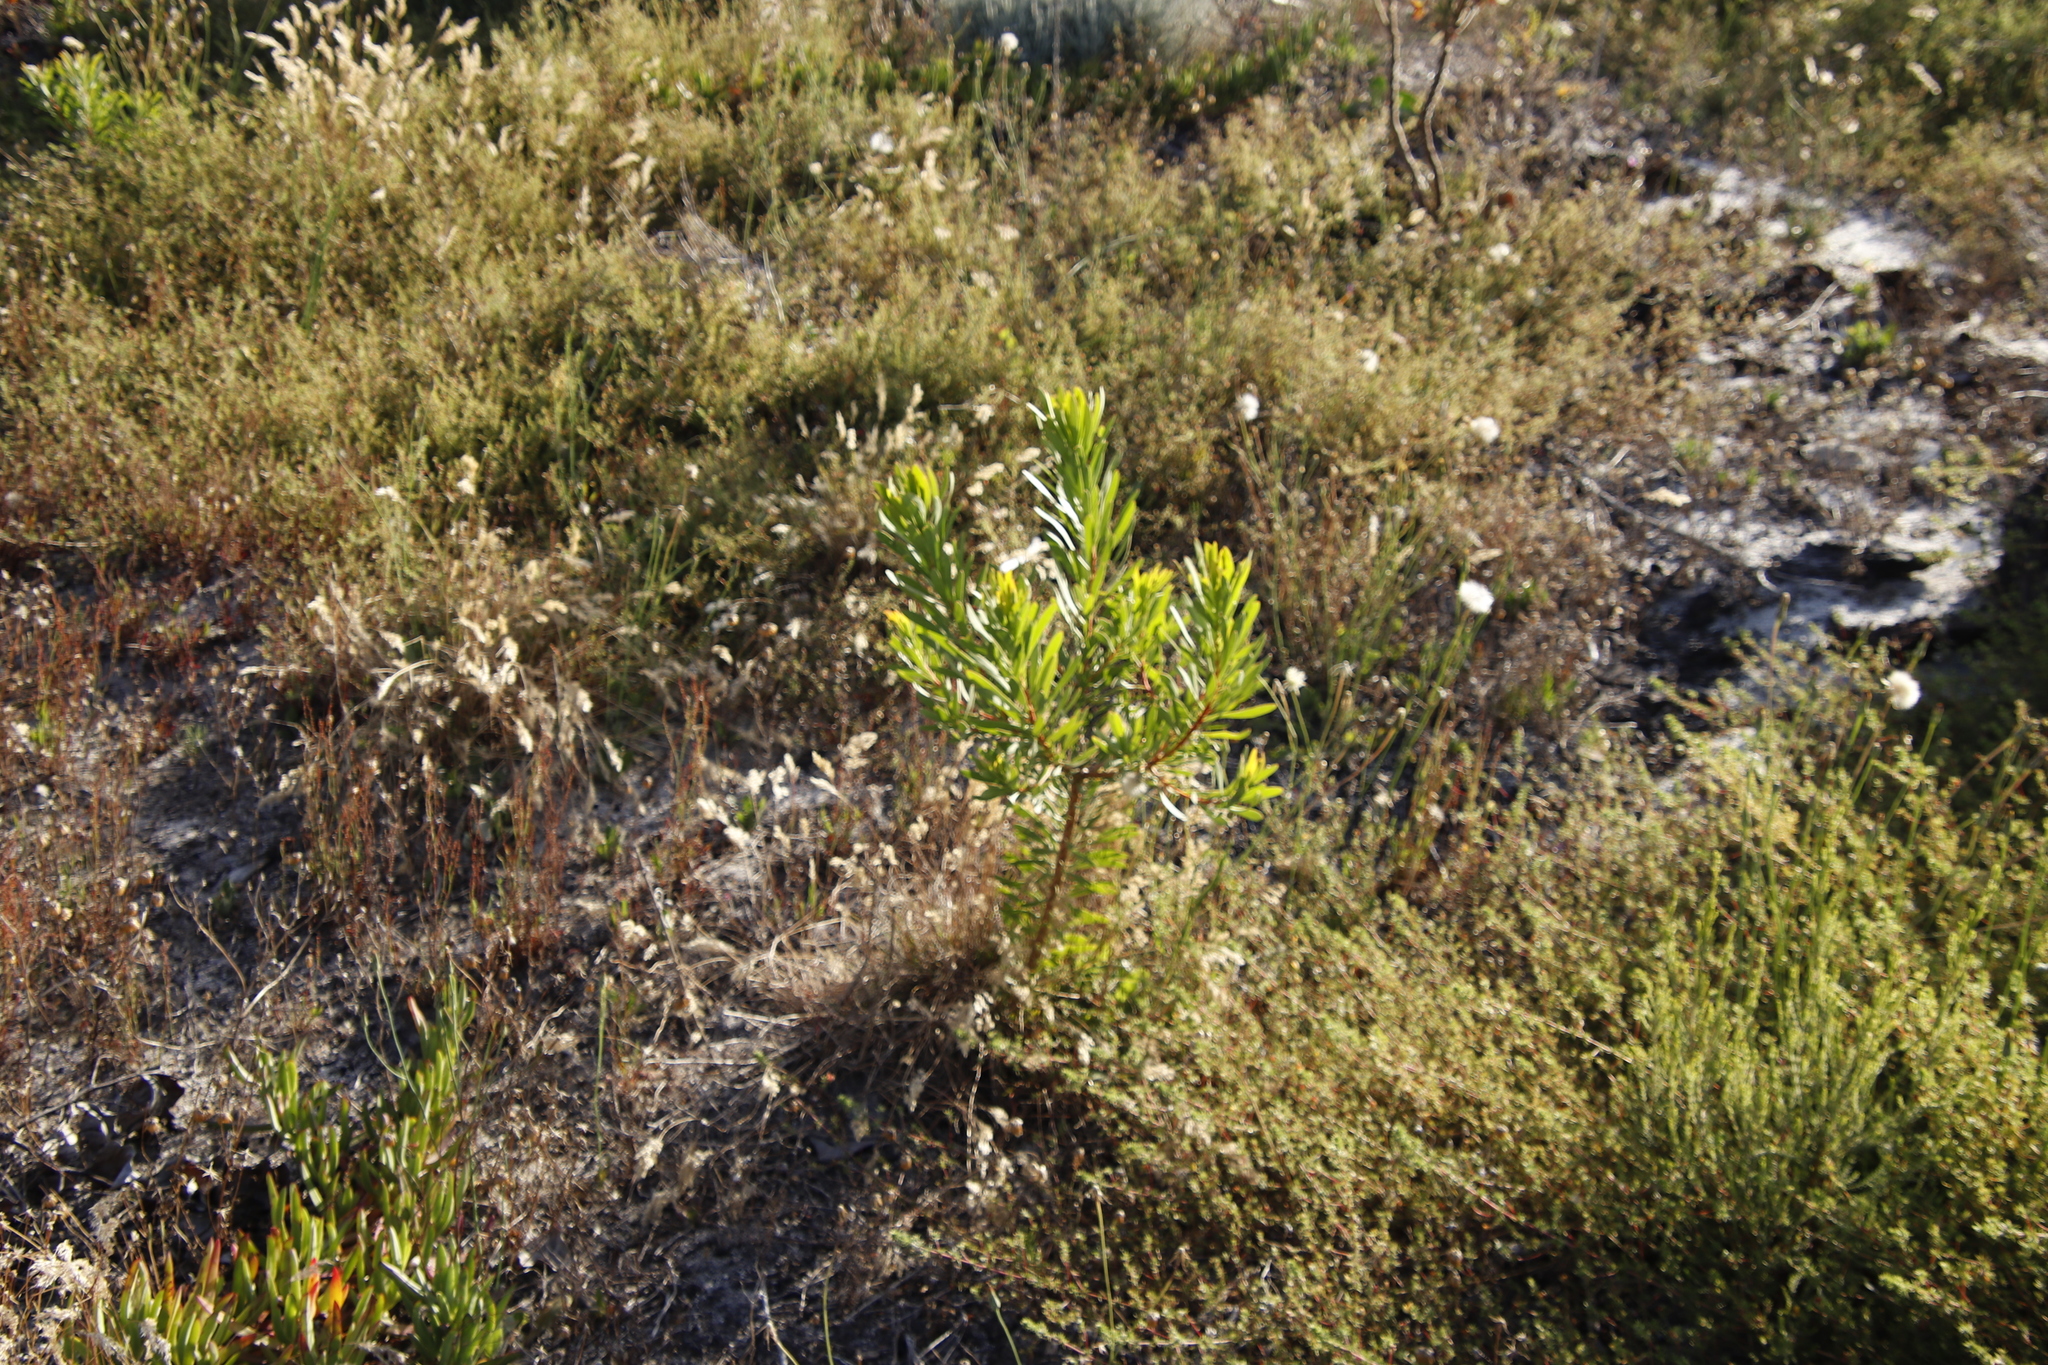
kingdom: Plantae
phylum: Tracheophyta
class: Magnoliopsida
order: Proteales
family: Proteaceae
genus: Protea
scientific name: Protea repens
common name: Sugarbush
